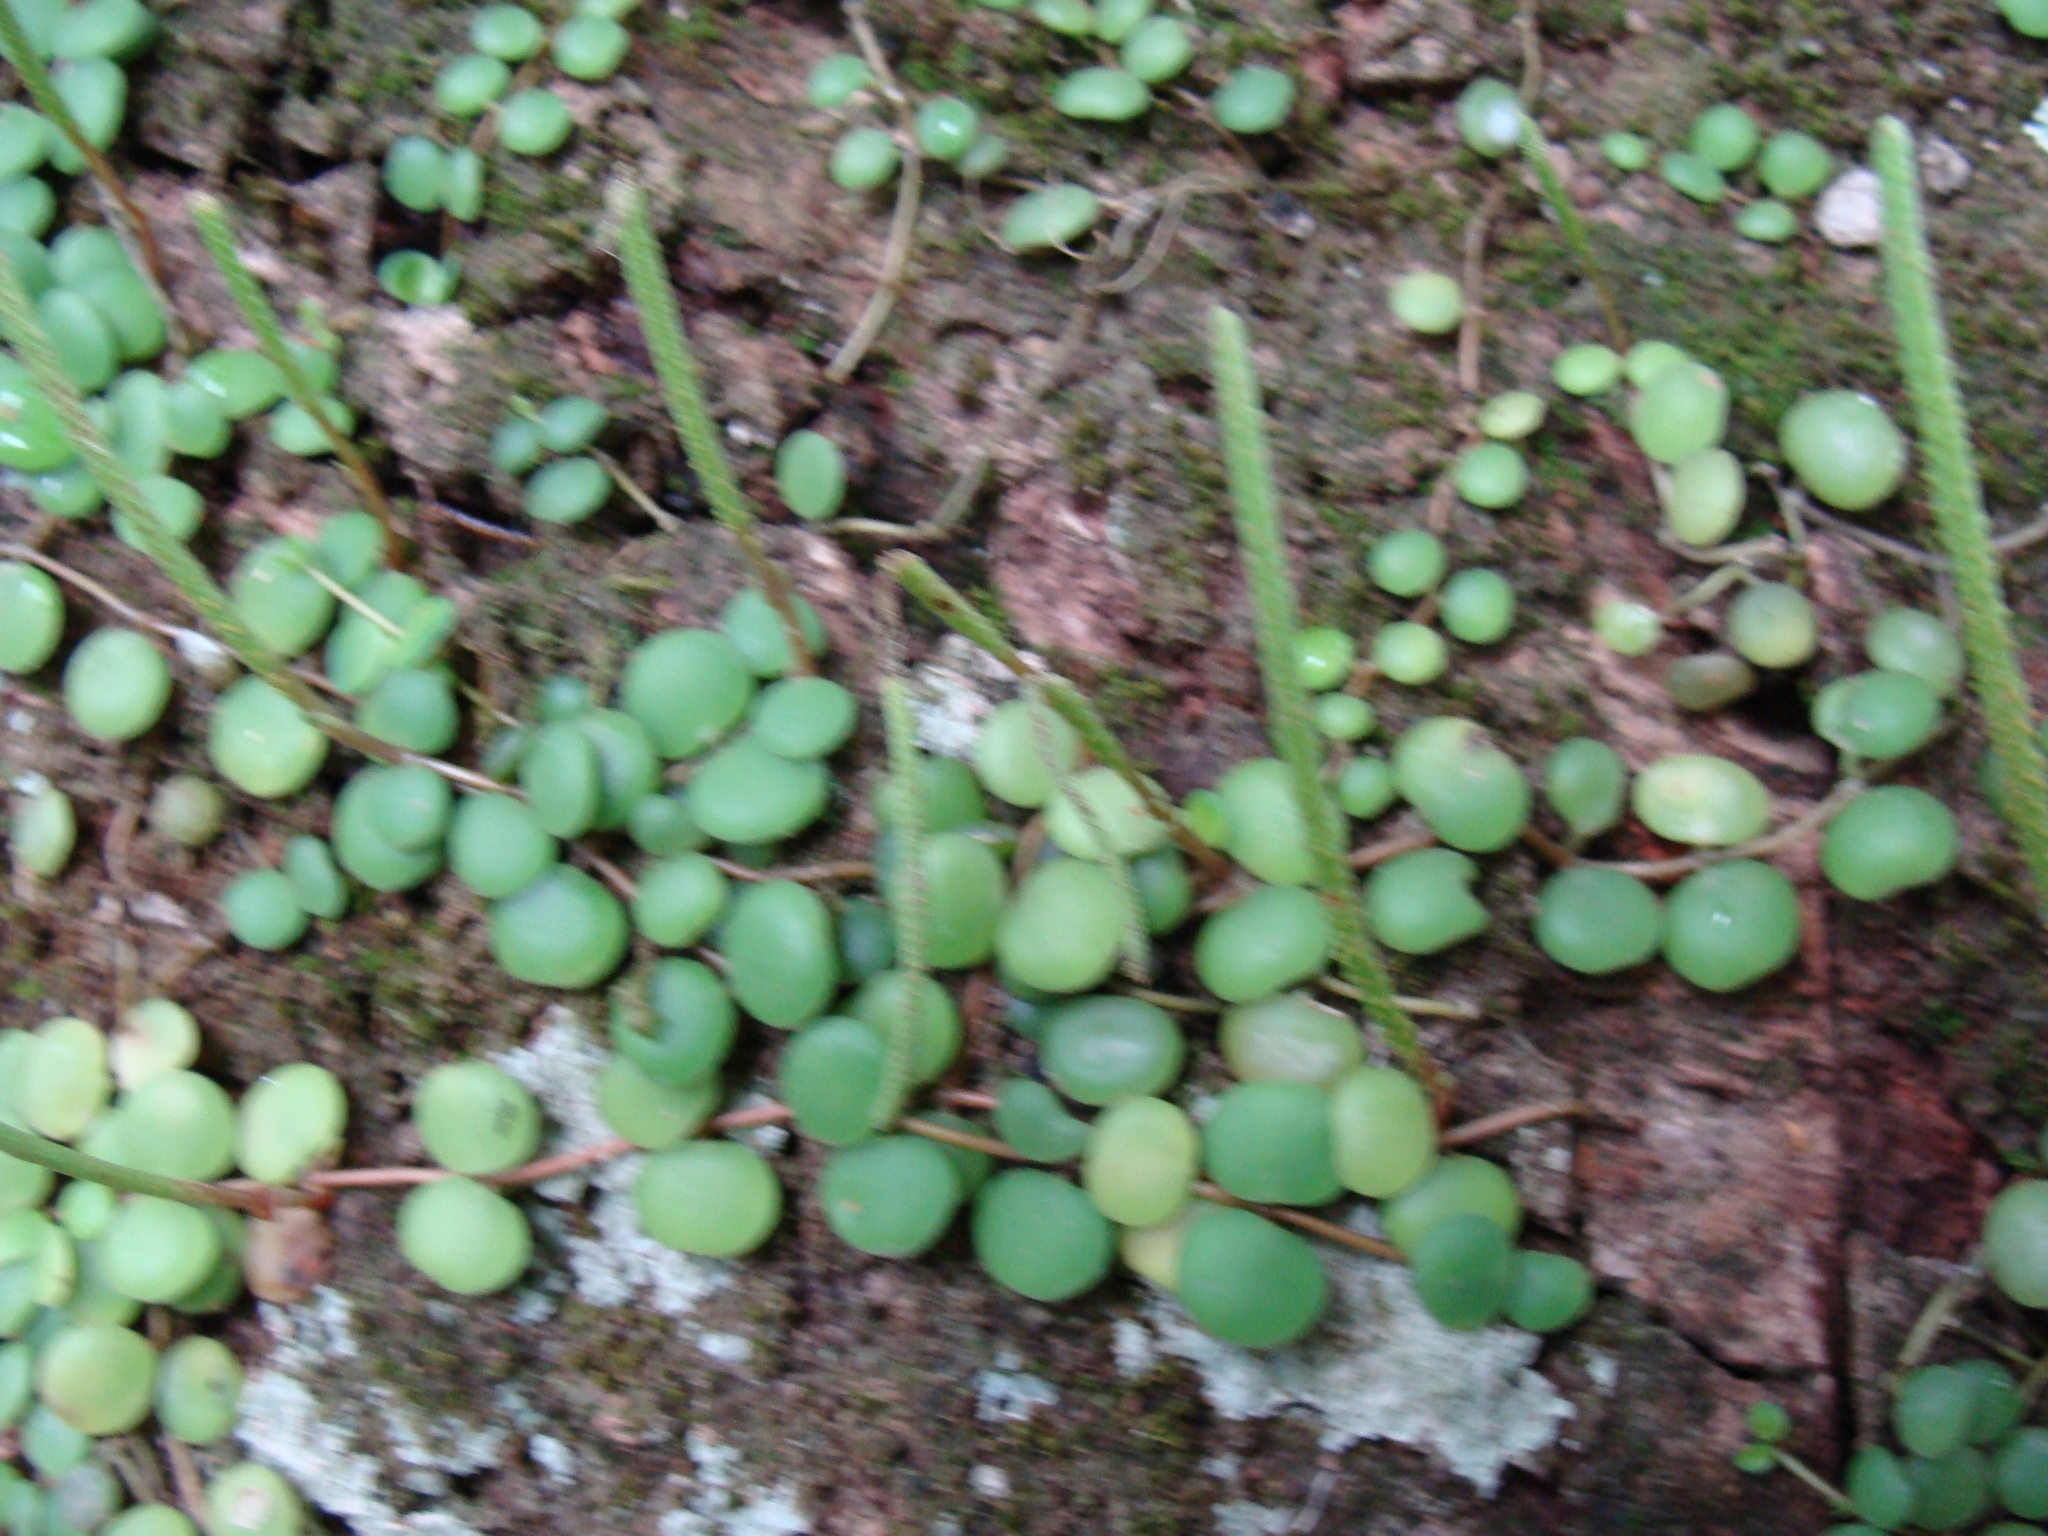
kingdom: Plantae
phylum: Tracheophyta
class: Magnoliopsida
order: Piperales
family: Piperaceae
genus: Peperomia
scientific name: Peperomia cyclophylla
